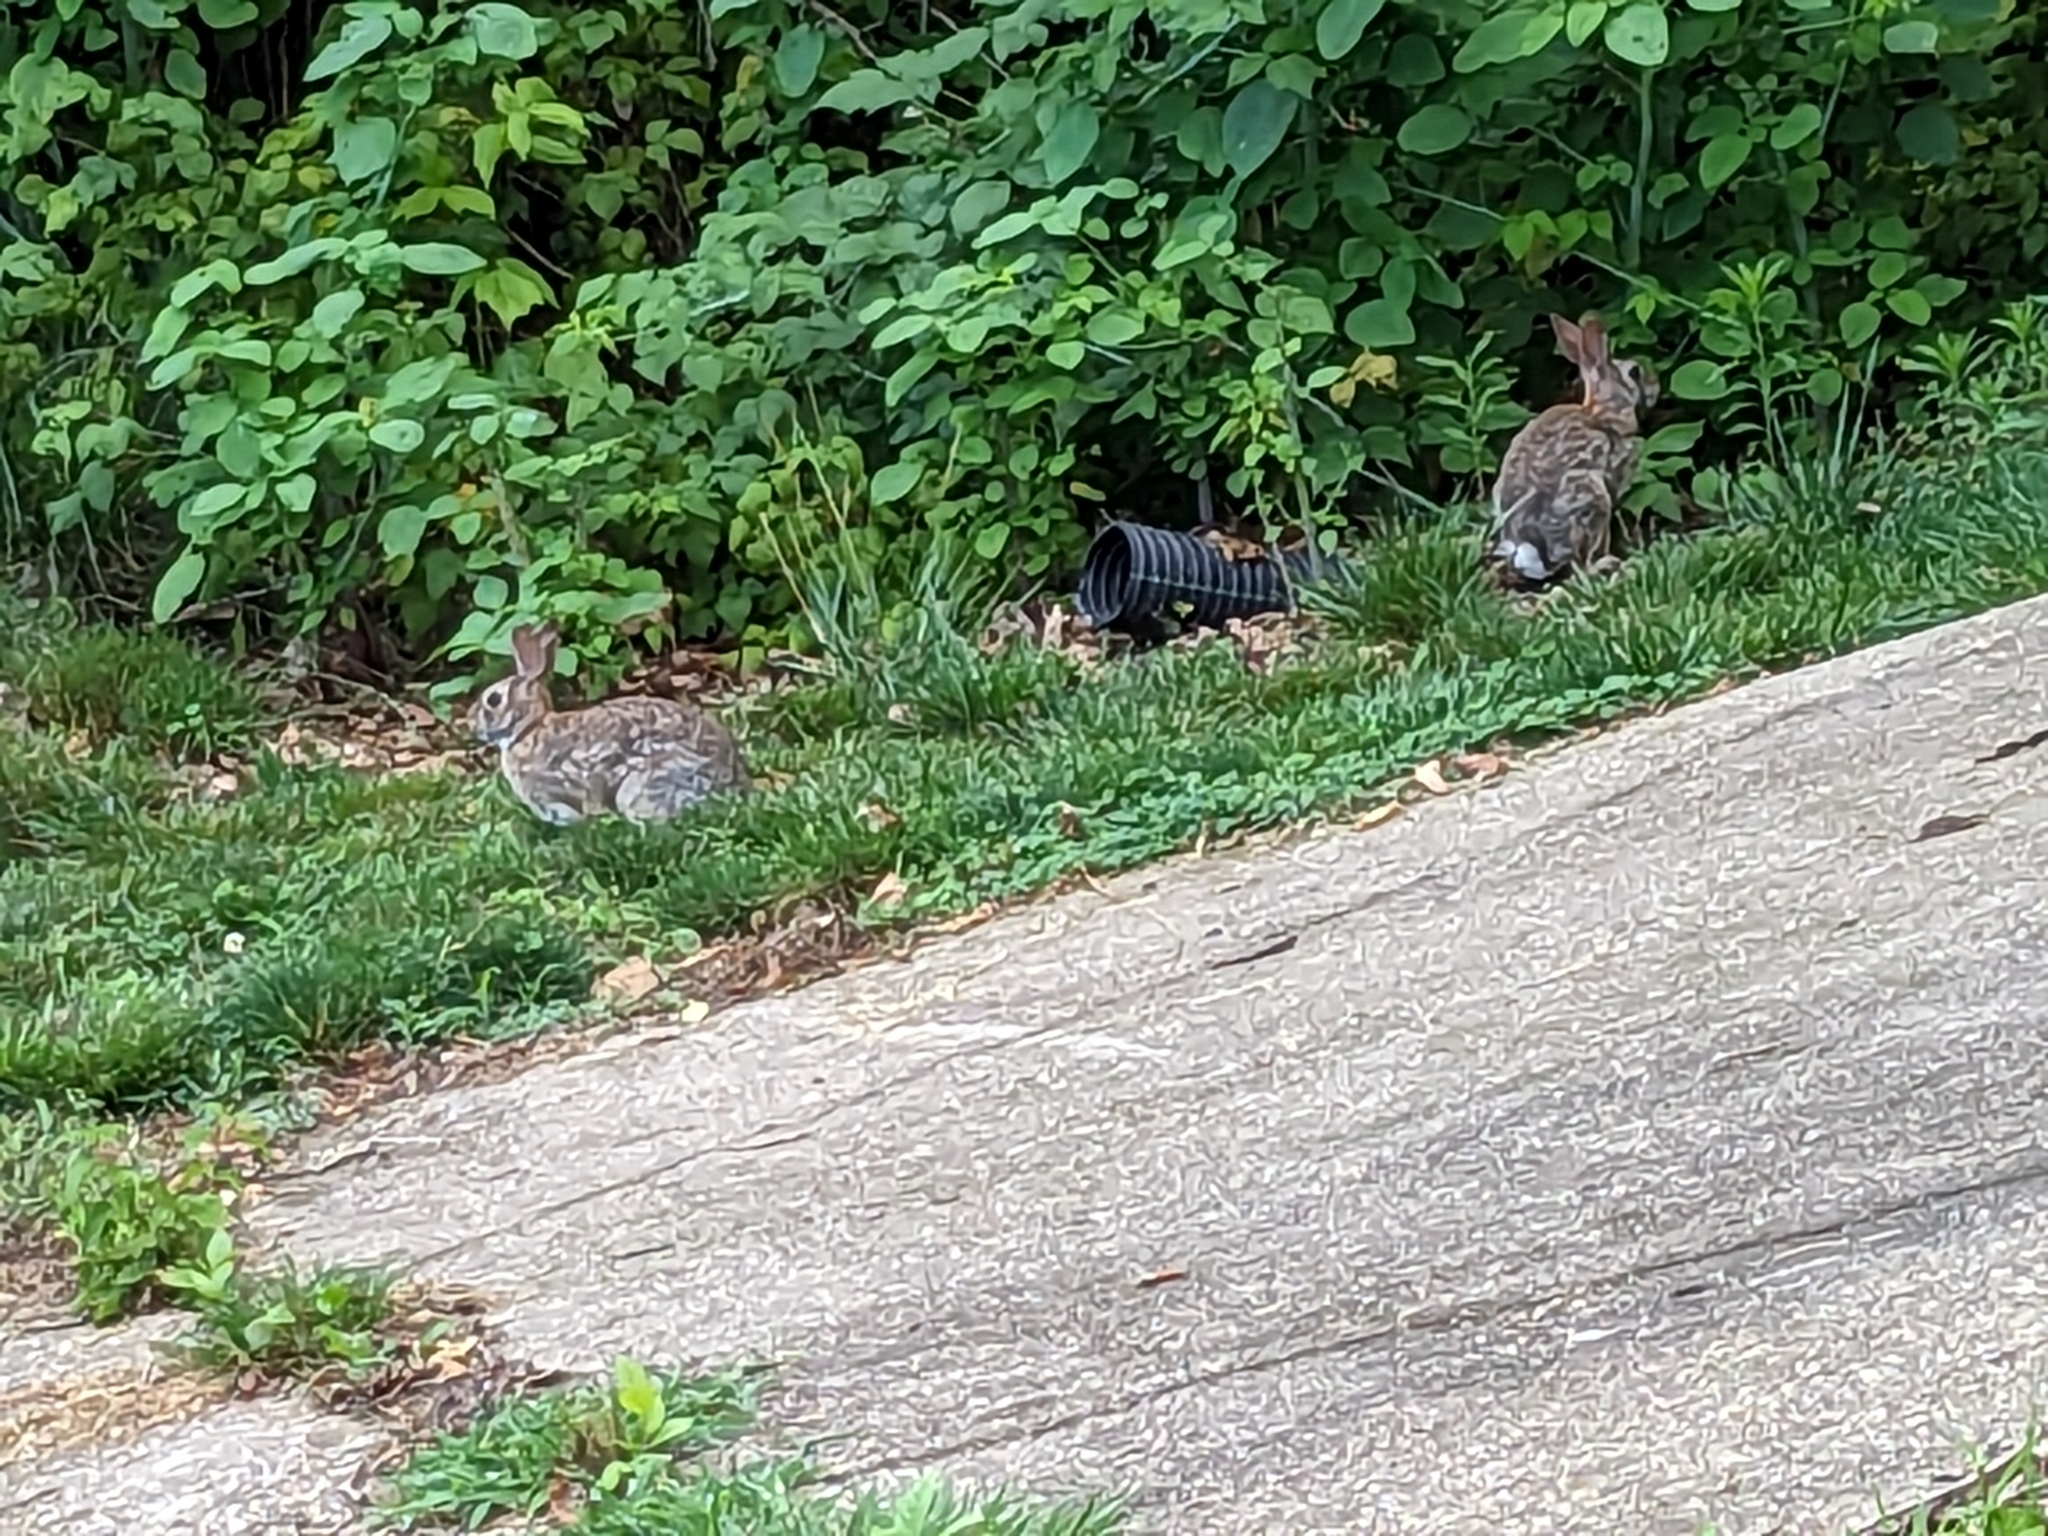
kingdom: Animalia
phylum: Chordata
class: Mammalia
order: Lagomorpha
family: Leporidae
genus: Sylvilagus
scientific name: Sylvilagus floridanus
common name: Eastern cottontail
